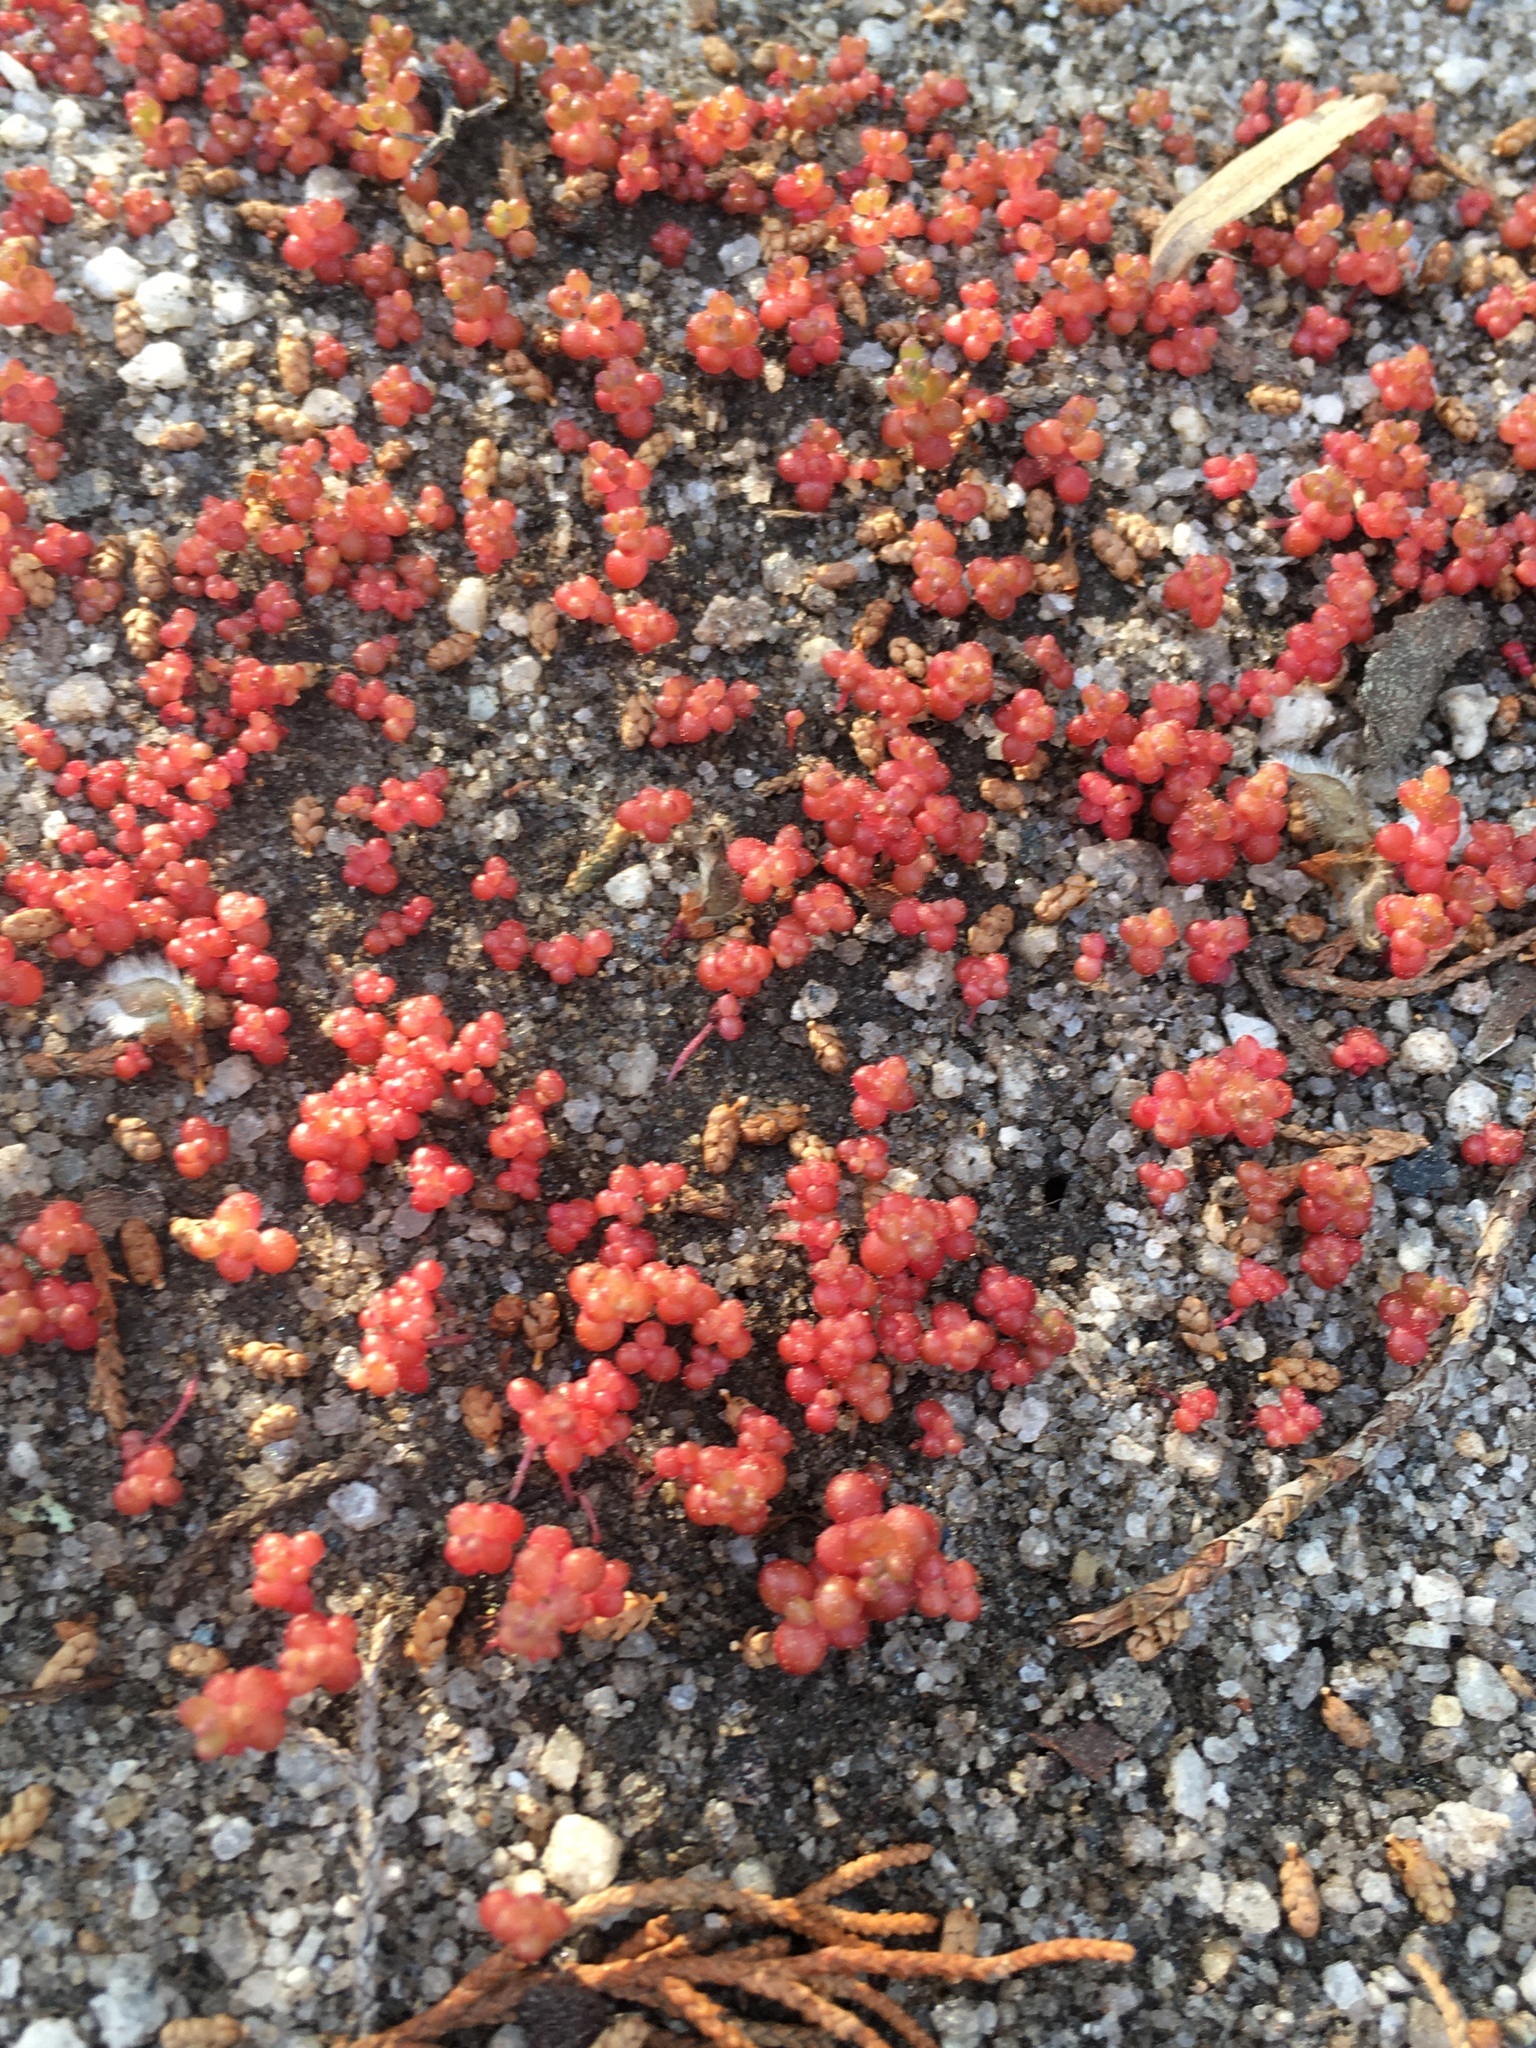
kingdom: Plantae
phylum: Tracheophyta
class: Magnoliopsida
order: Saxifragales
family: Crassulaceae
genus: Sedum
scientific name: Sedum smallii
